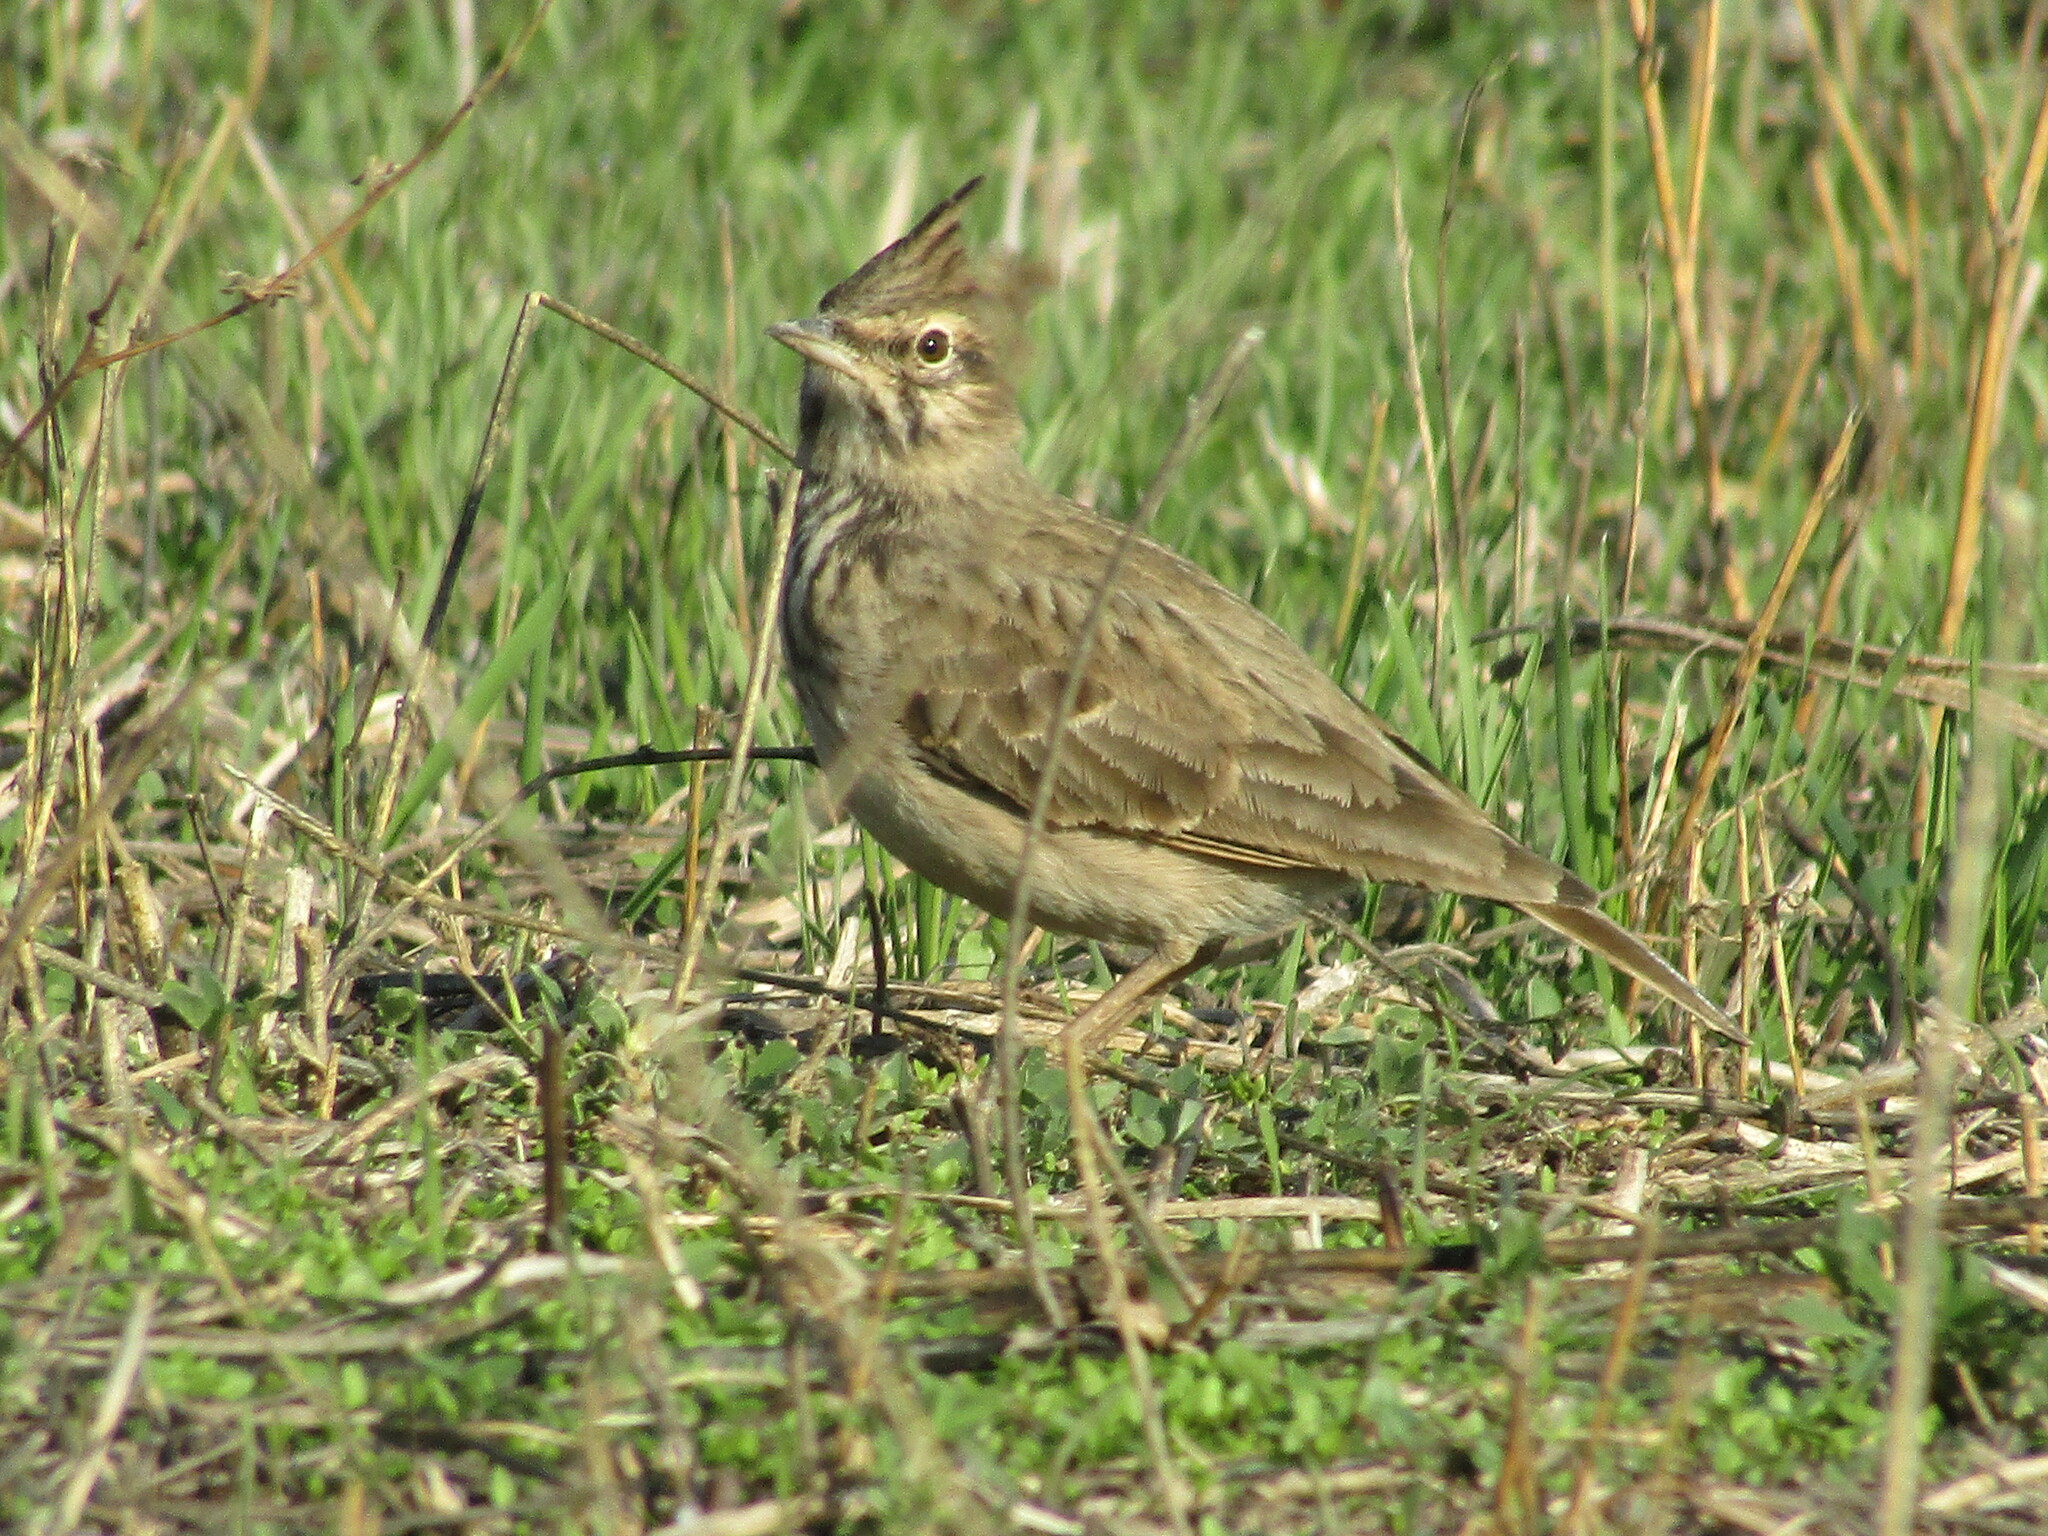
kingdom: Animalia
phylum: Chordata
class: Aves
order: Passeriformes
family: Alaudidae
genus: Galerida
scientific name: Galerida cristata
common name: Crested lark
